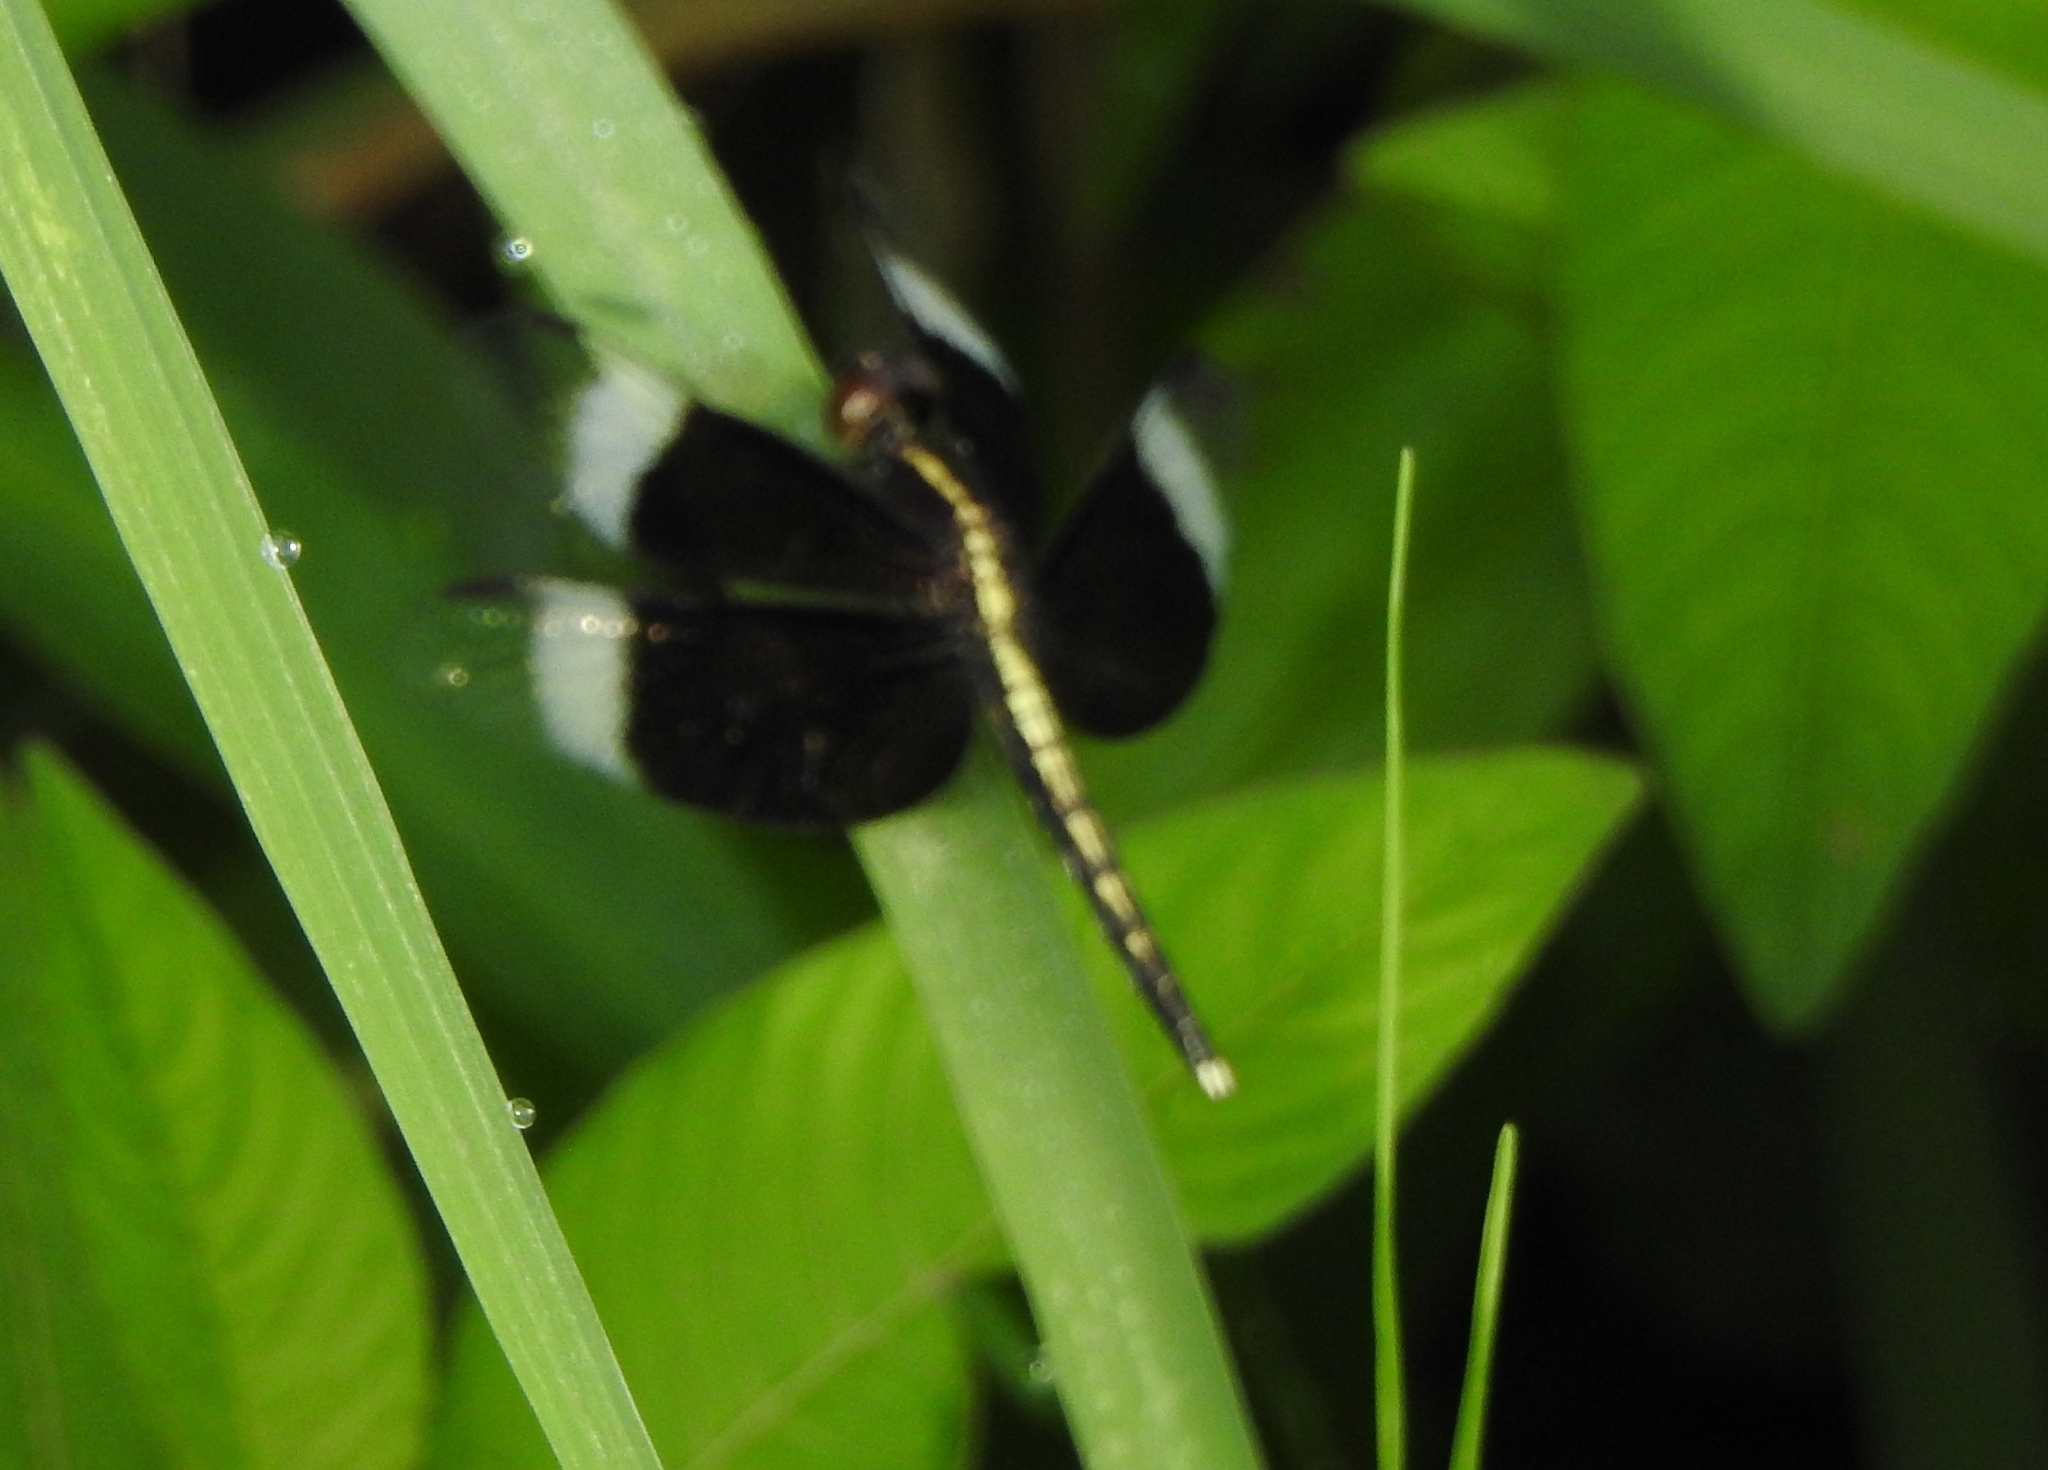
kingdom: Animalia
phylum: Arthropoda
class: Insecta
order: Odonata
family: Libellulidae
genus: Neurothemis
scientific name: Neurothemis tullia
